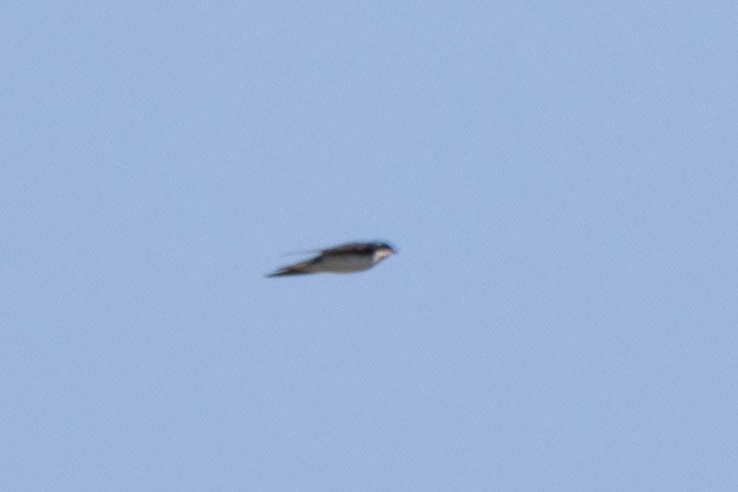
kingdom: Animalia
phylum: Chordata
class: Aves
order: Passeriformes
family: Hirundinidae
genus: Tachycineta
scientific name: Tachycineta bicolor
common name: Tree swallow
